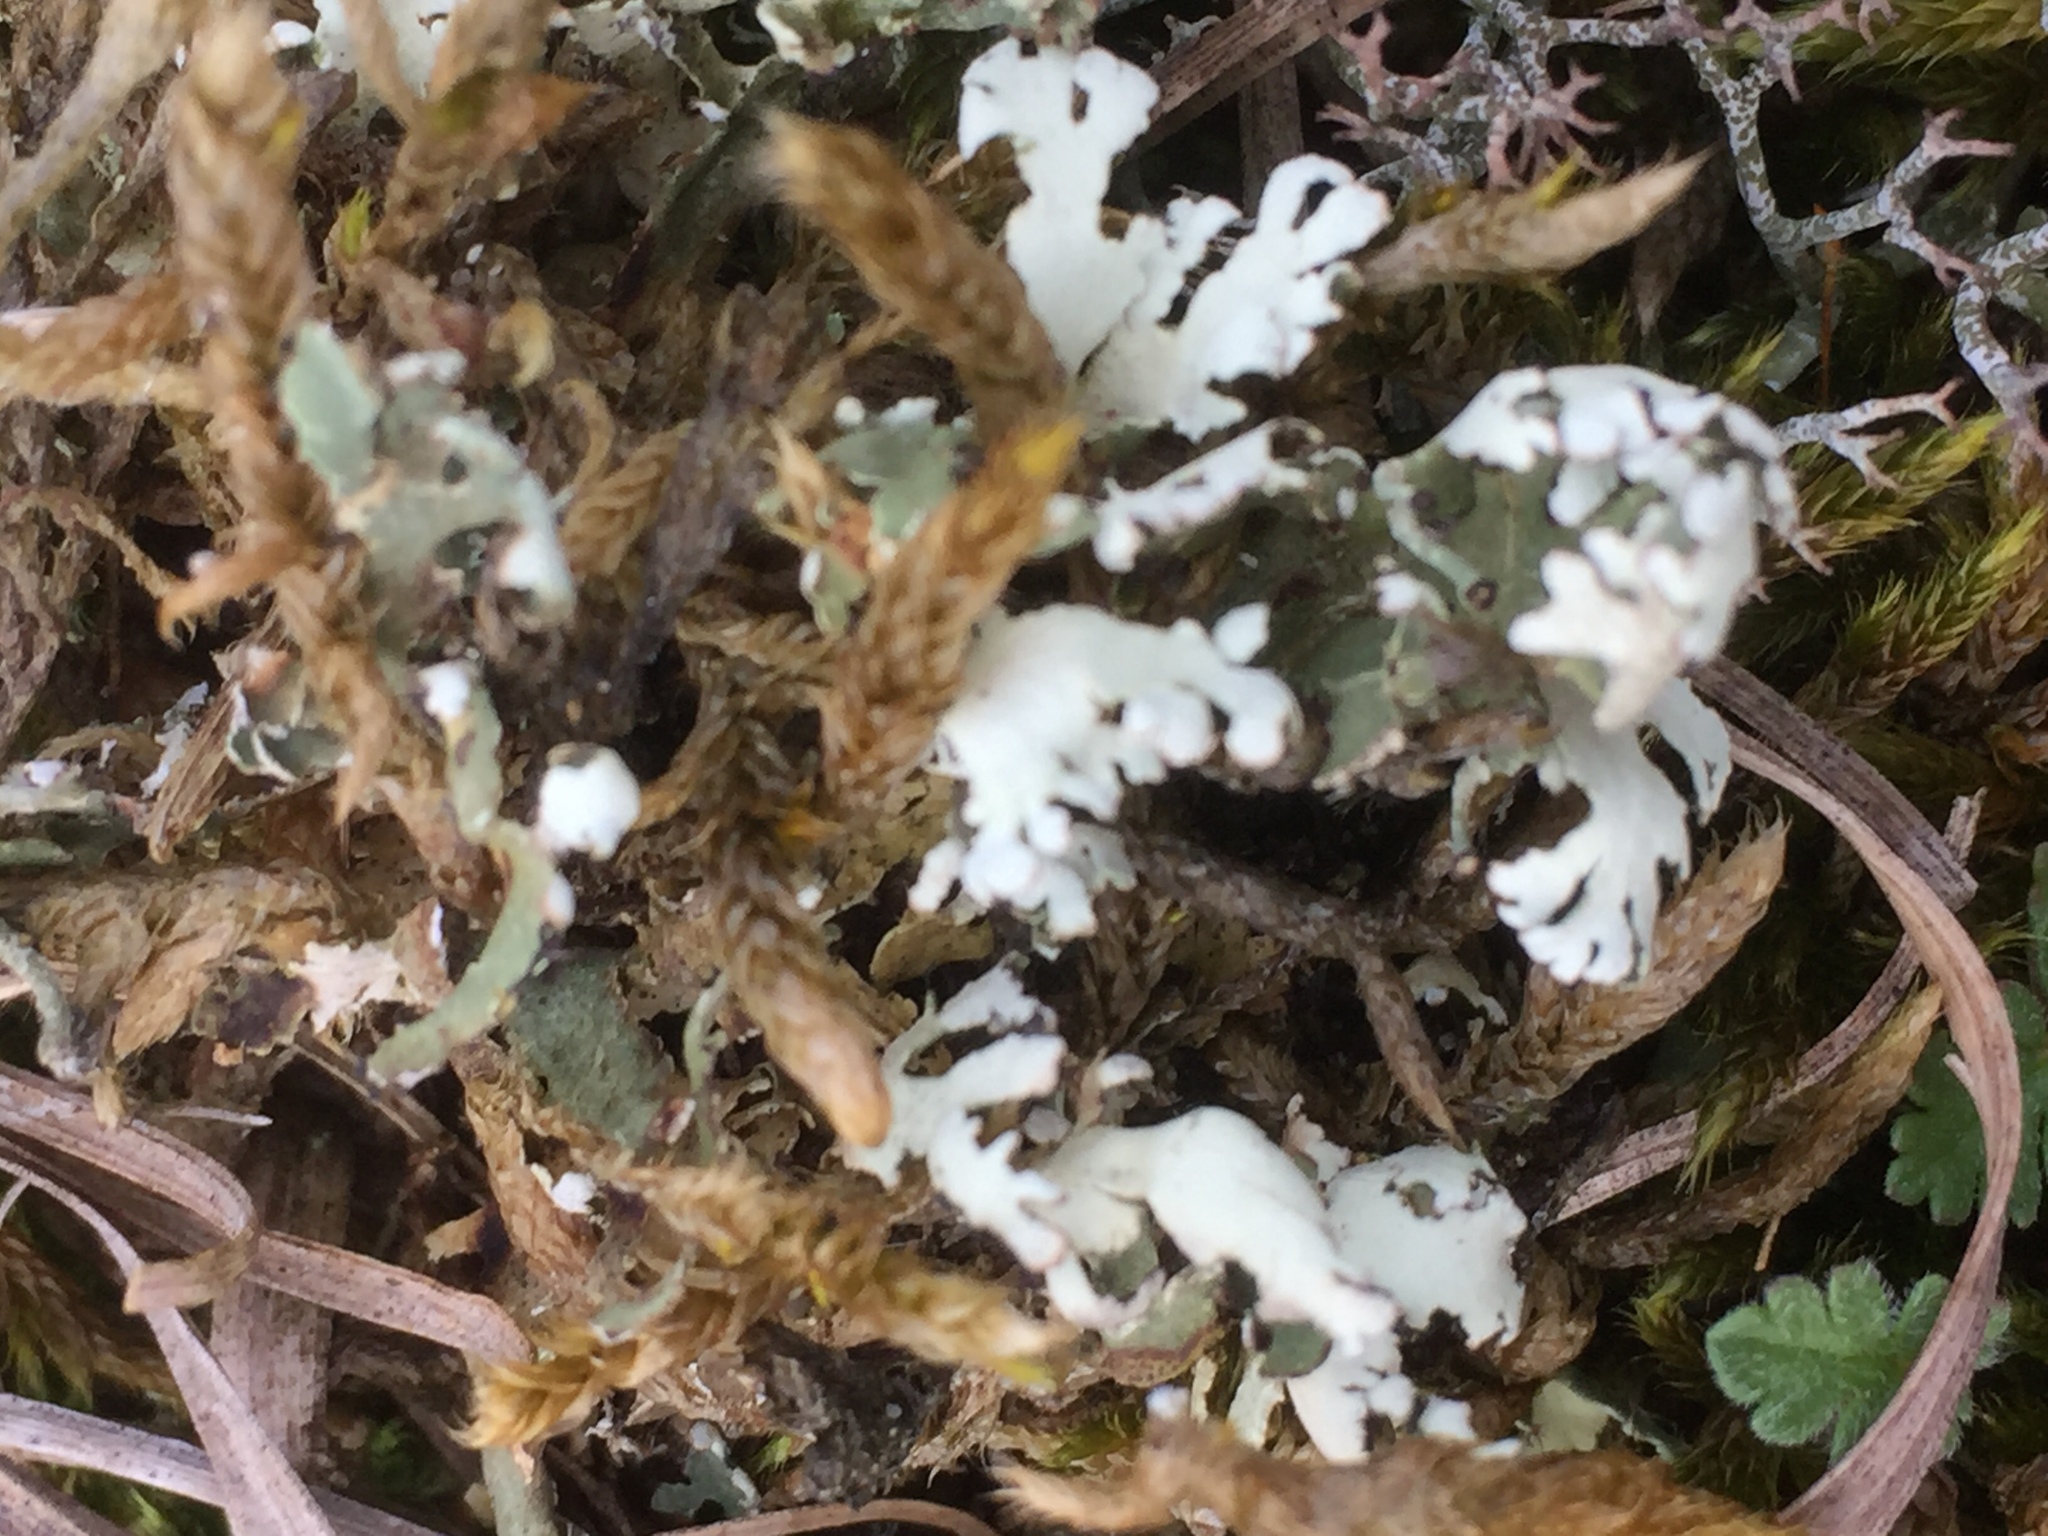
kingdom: Fungi
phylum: Ascomycota
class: Lecanoromycetes
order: Lecanorales
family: Cladoniaceae
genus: Cladonia
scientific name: Cladonia foliacea
